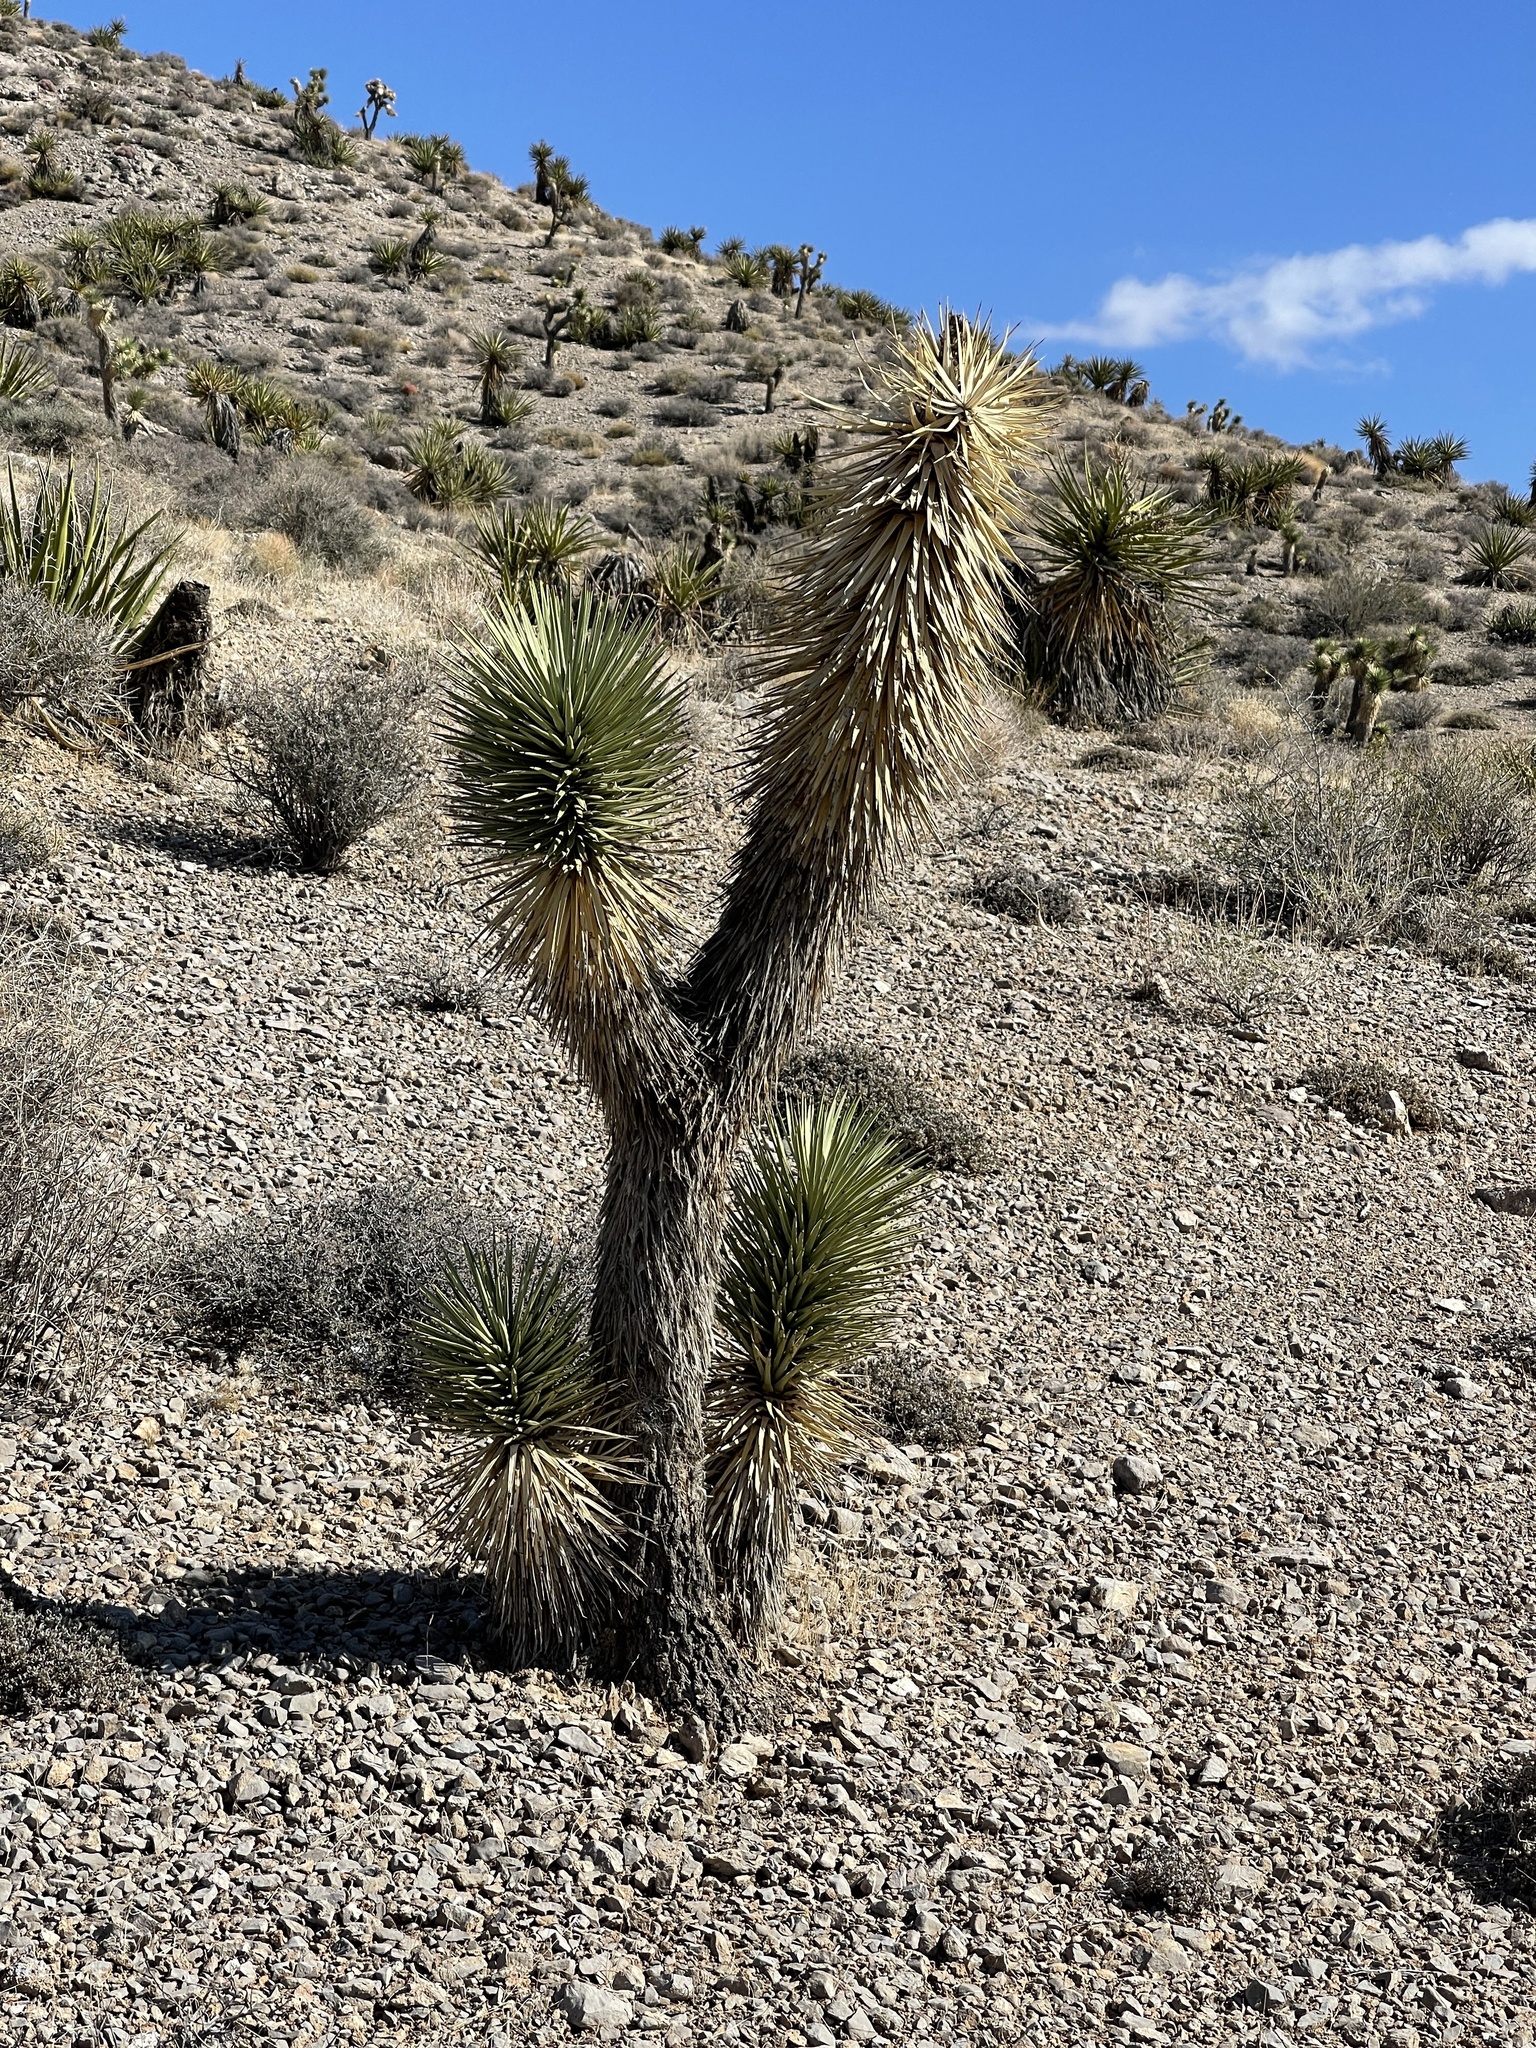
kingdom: Plantae
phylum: Tracheophyta
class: Liliopsida
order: Asparagales
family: Asparagaceae
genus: Yucca
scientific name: Yucca brevifolia
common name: Joshua tree
